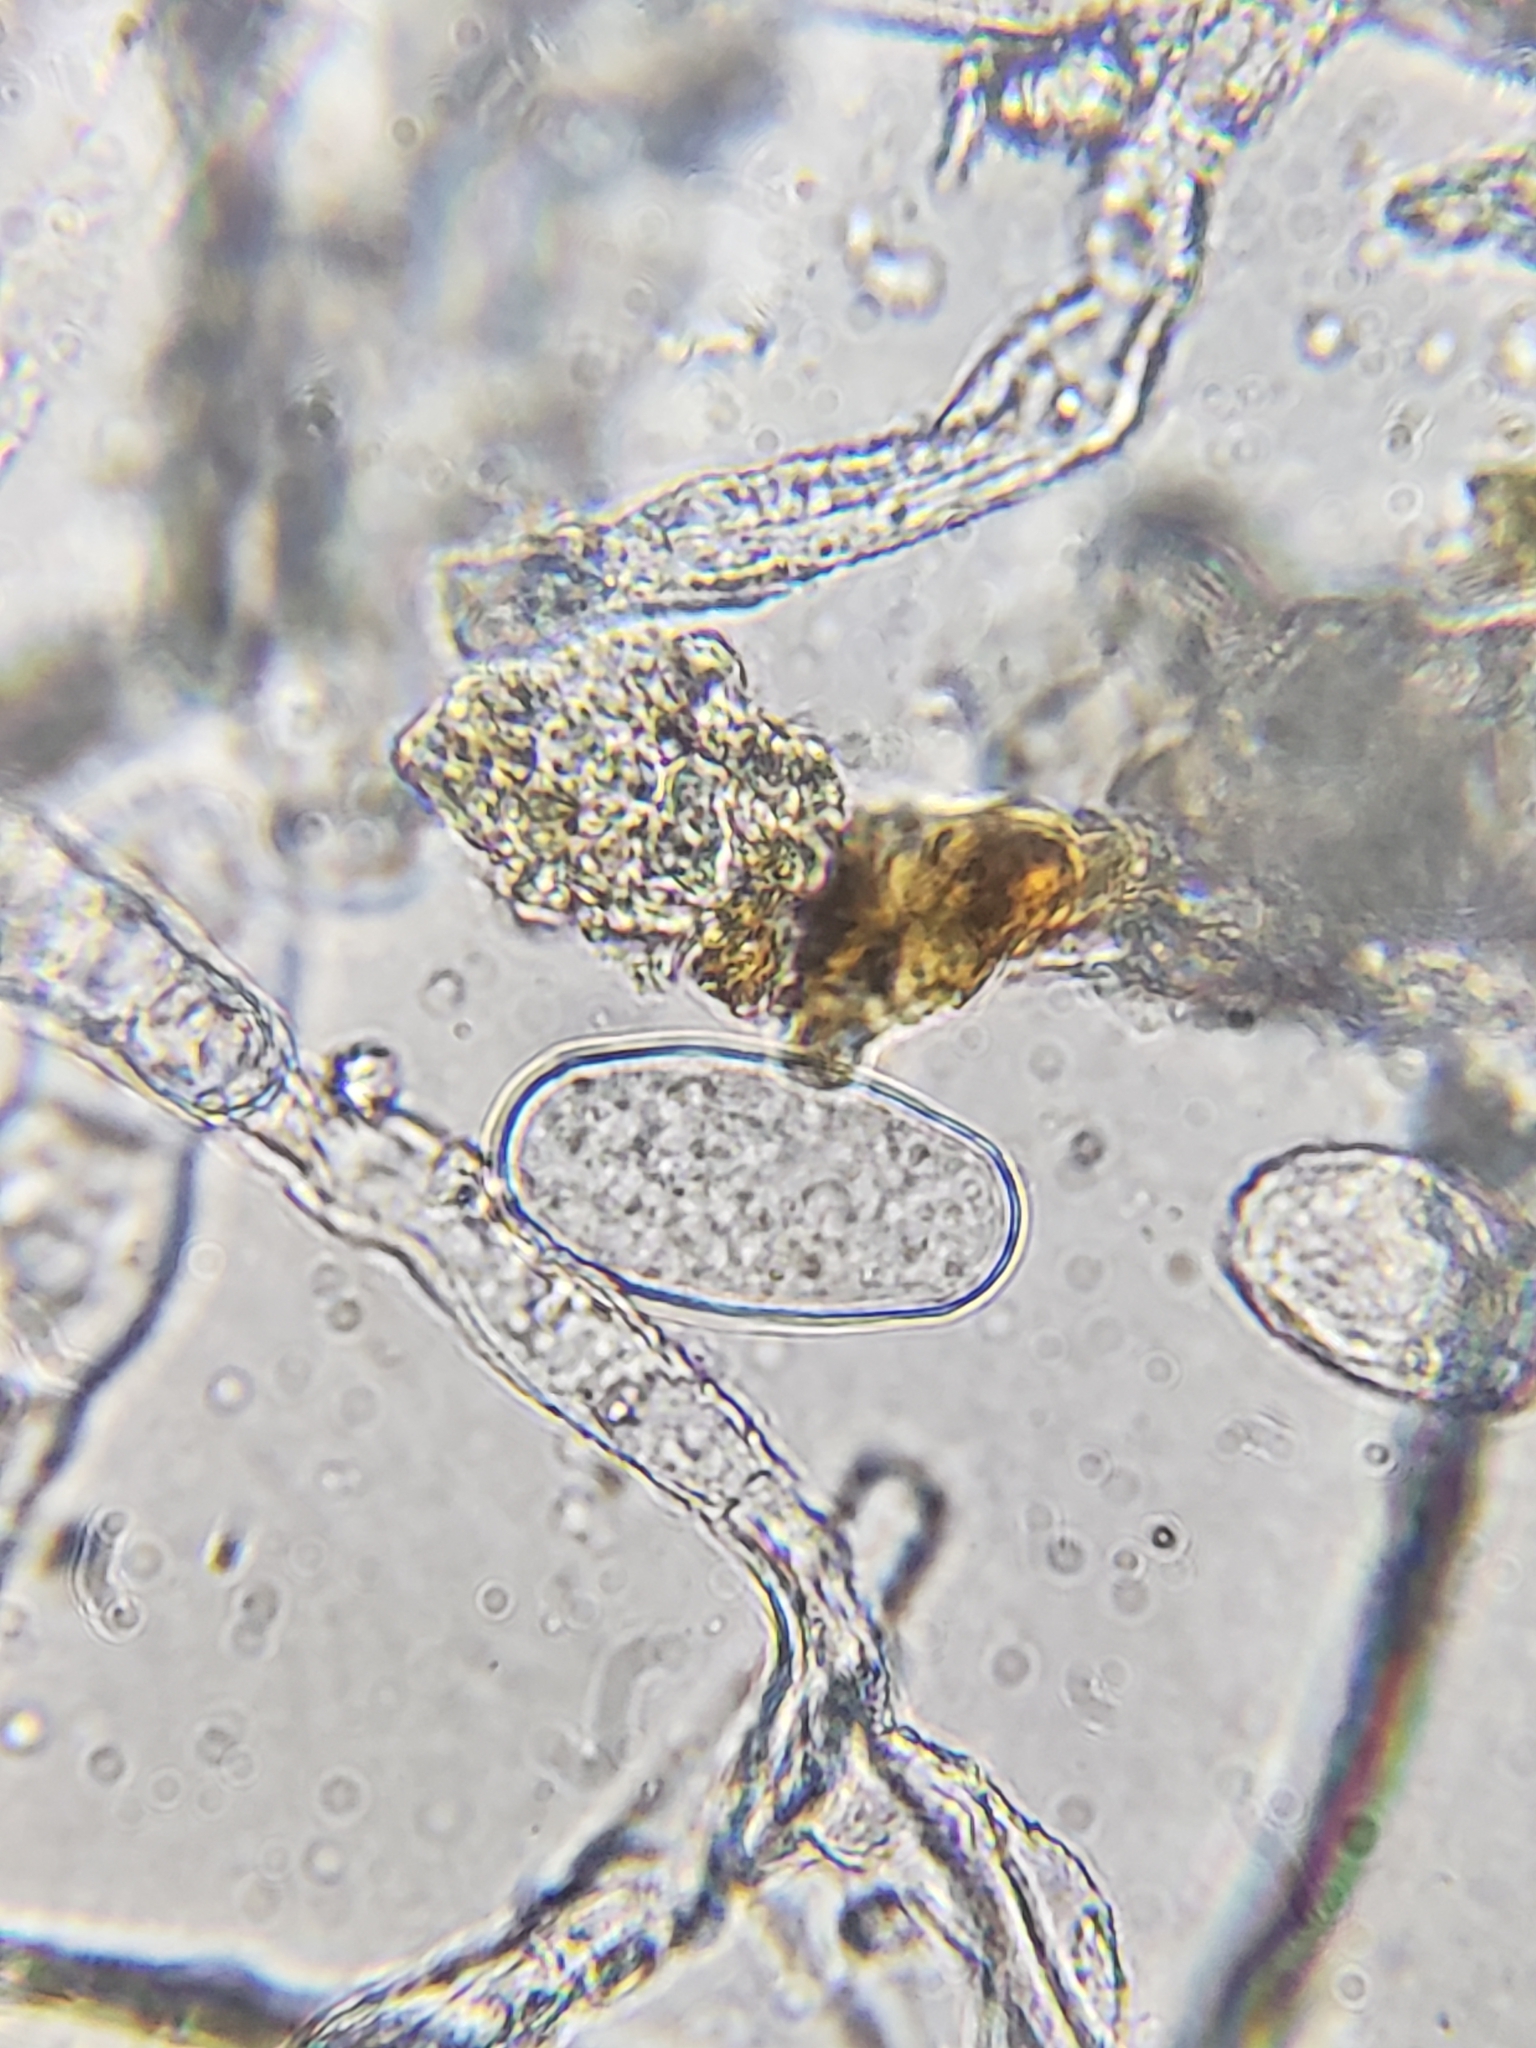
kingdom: Fungi
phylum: Ascomycota
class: Leotiomycetes
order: Helotiales
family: Erysiphaceae
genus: Golovinomyces
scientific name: Golovinomyces hydrophyllacearum
